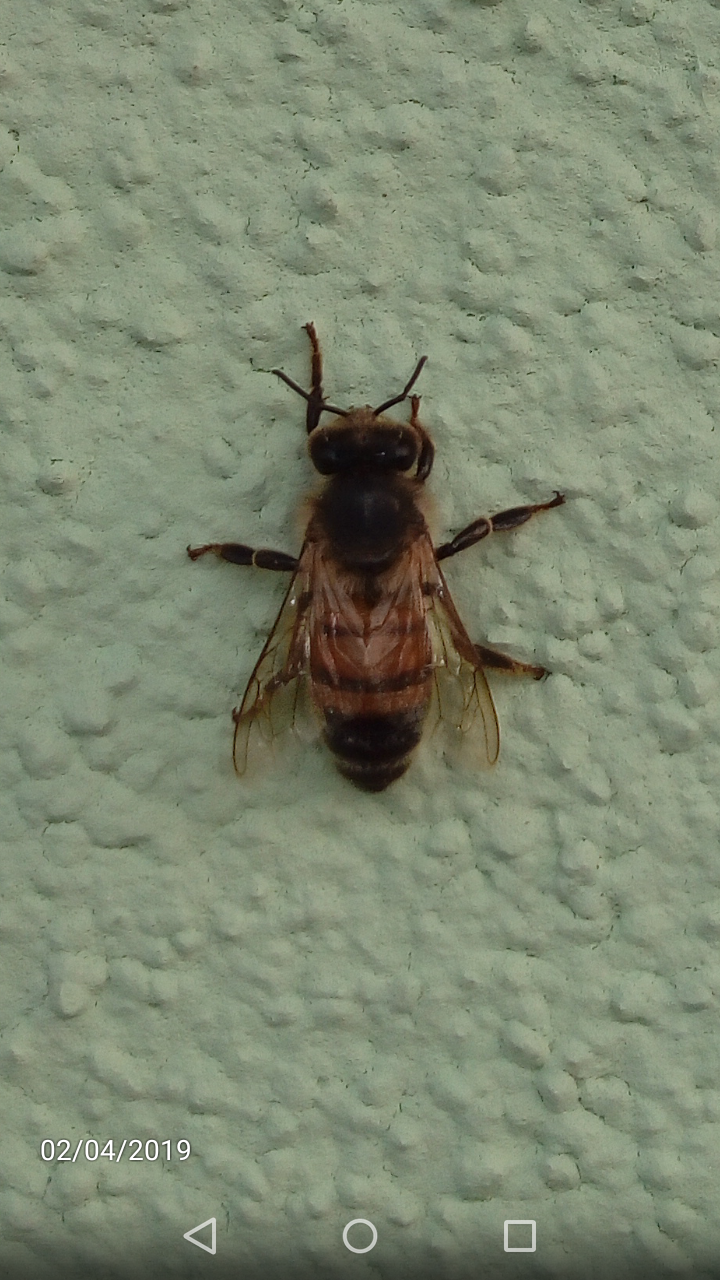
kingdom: Animalia
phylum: Arthropoda
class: Insecta
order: Hymenoptera
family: Apidae
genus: Apis
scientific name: Apis mellifera
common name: Honey bee
